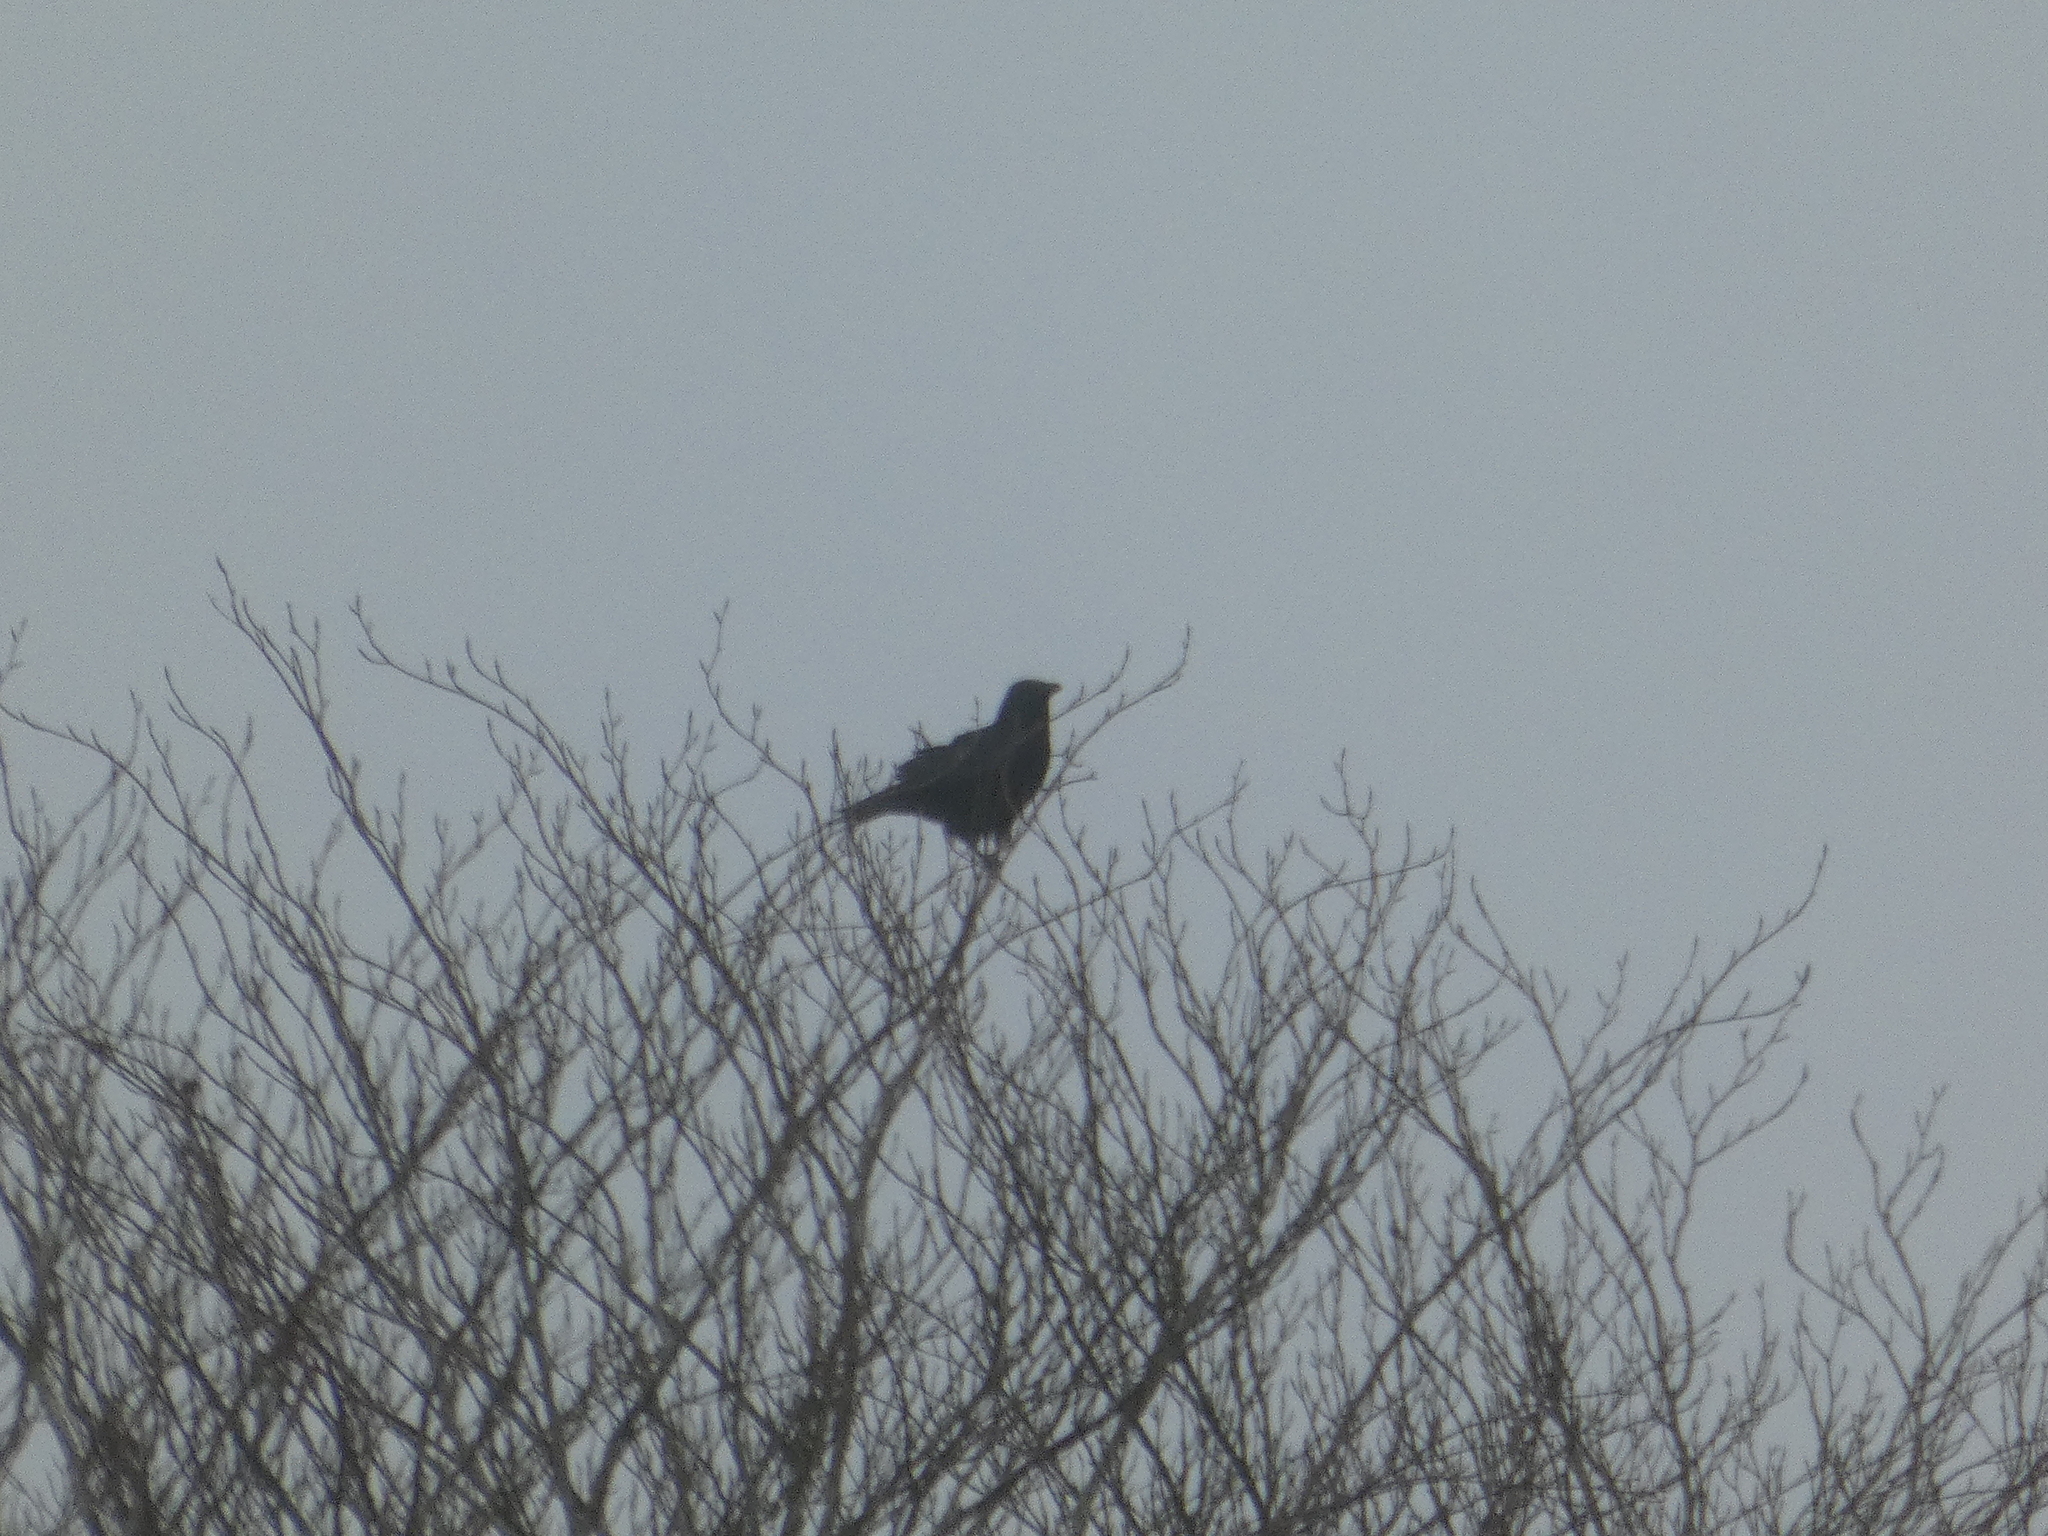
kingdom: Animalia
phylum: Chordata
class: Aves
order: Passeriformes
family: Corvidae
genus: Corvus
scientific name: Corvus corone
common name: Carrion crow
